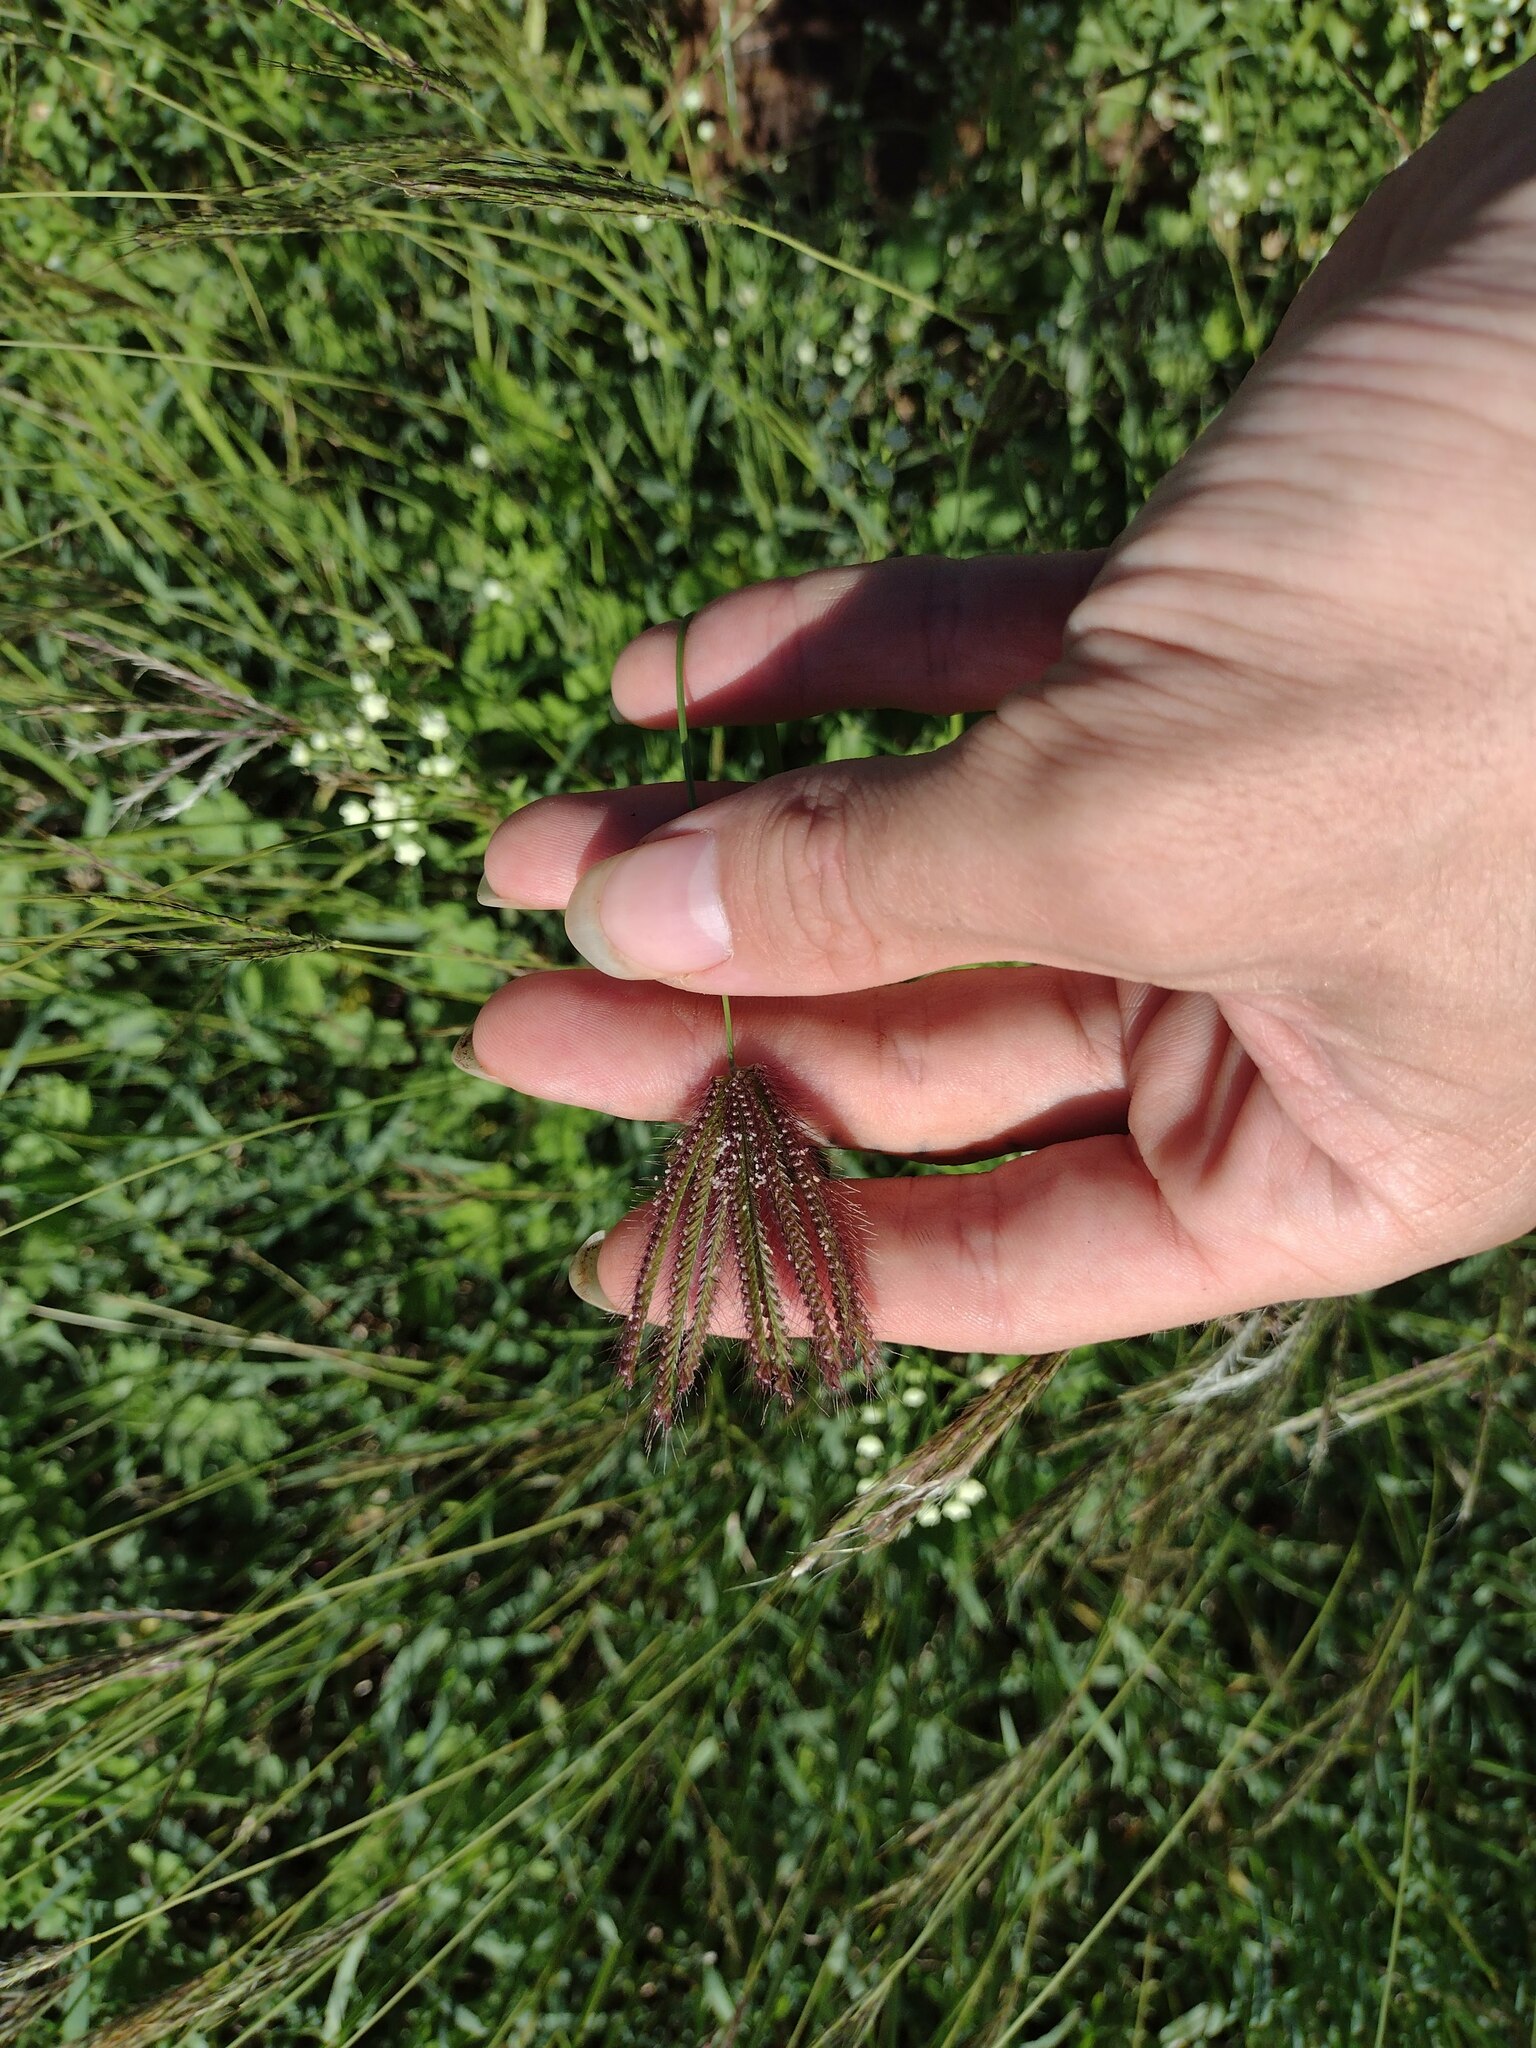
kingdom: Plantae
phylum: Tracheophyta
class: Liliopsida
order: Poales
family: Poaceae
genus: Chloris
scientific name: Chloris barbata
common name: Swollen fingergrass
